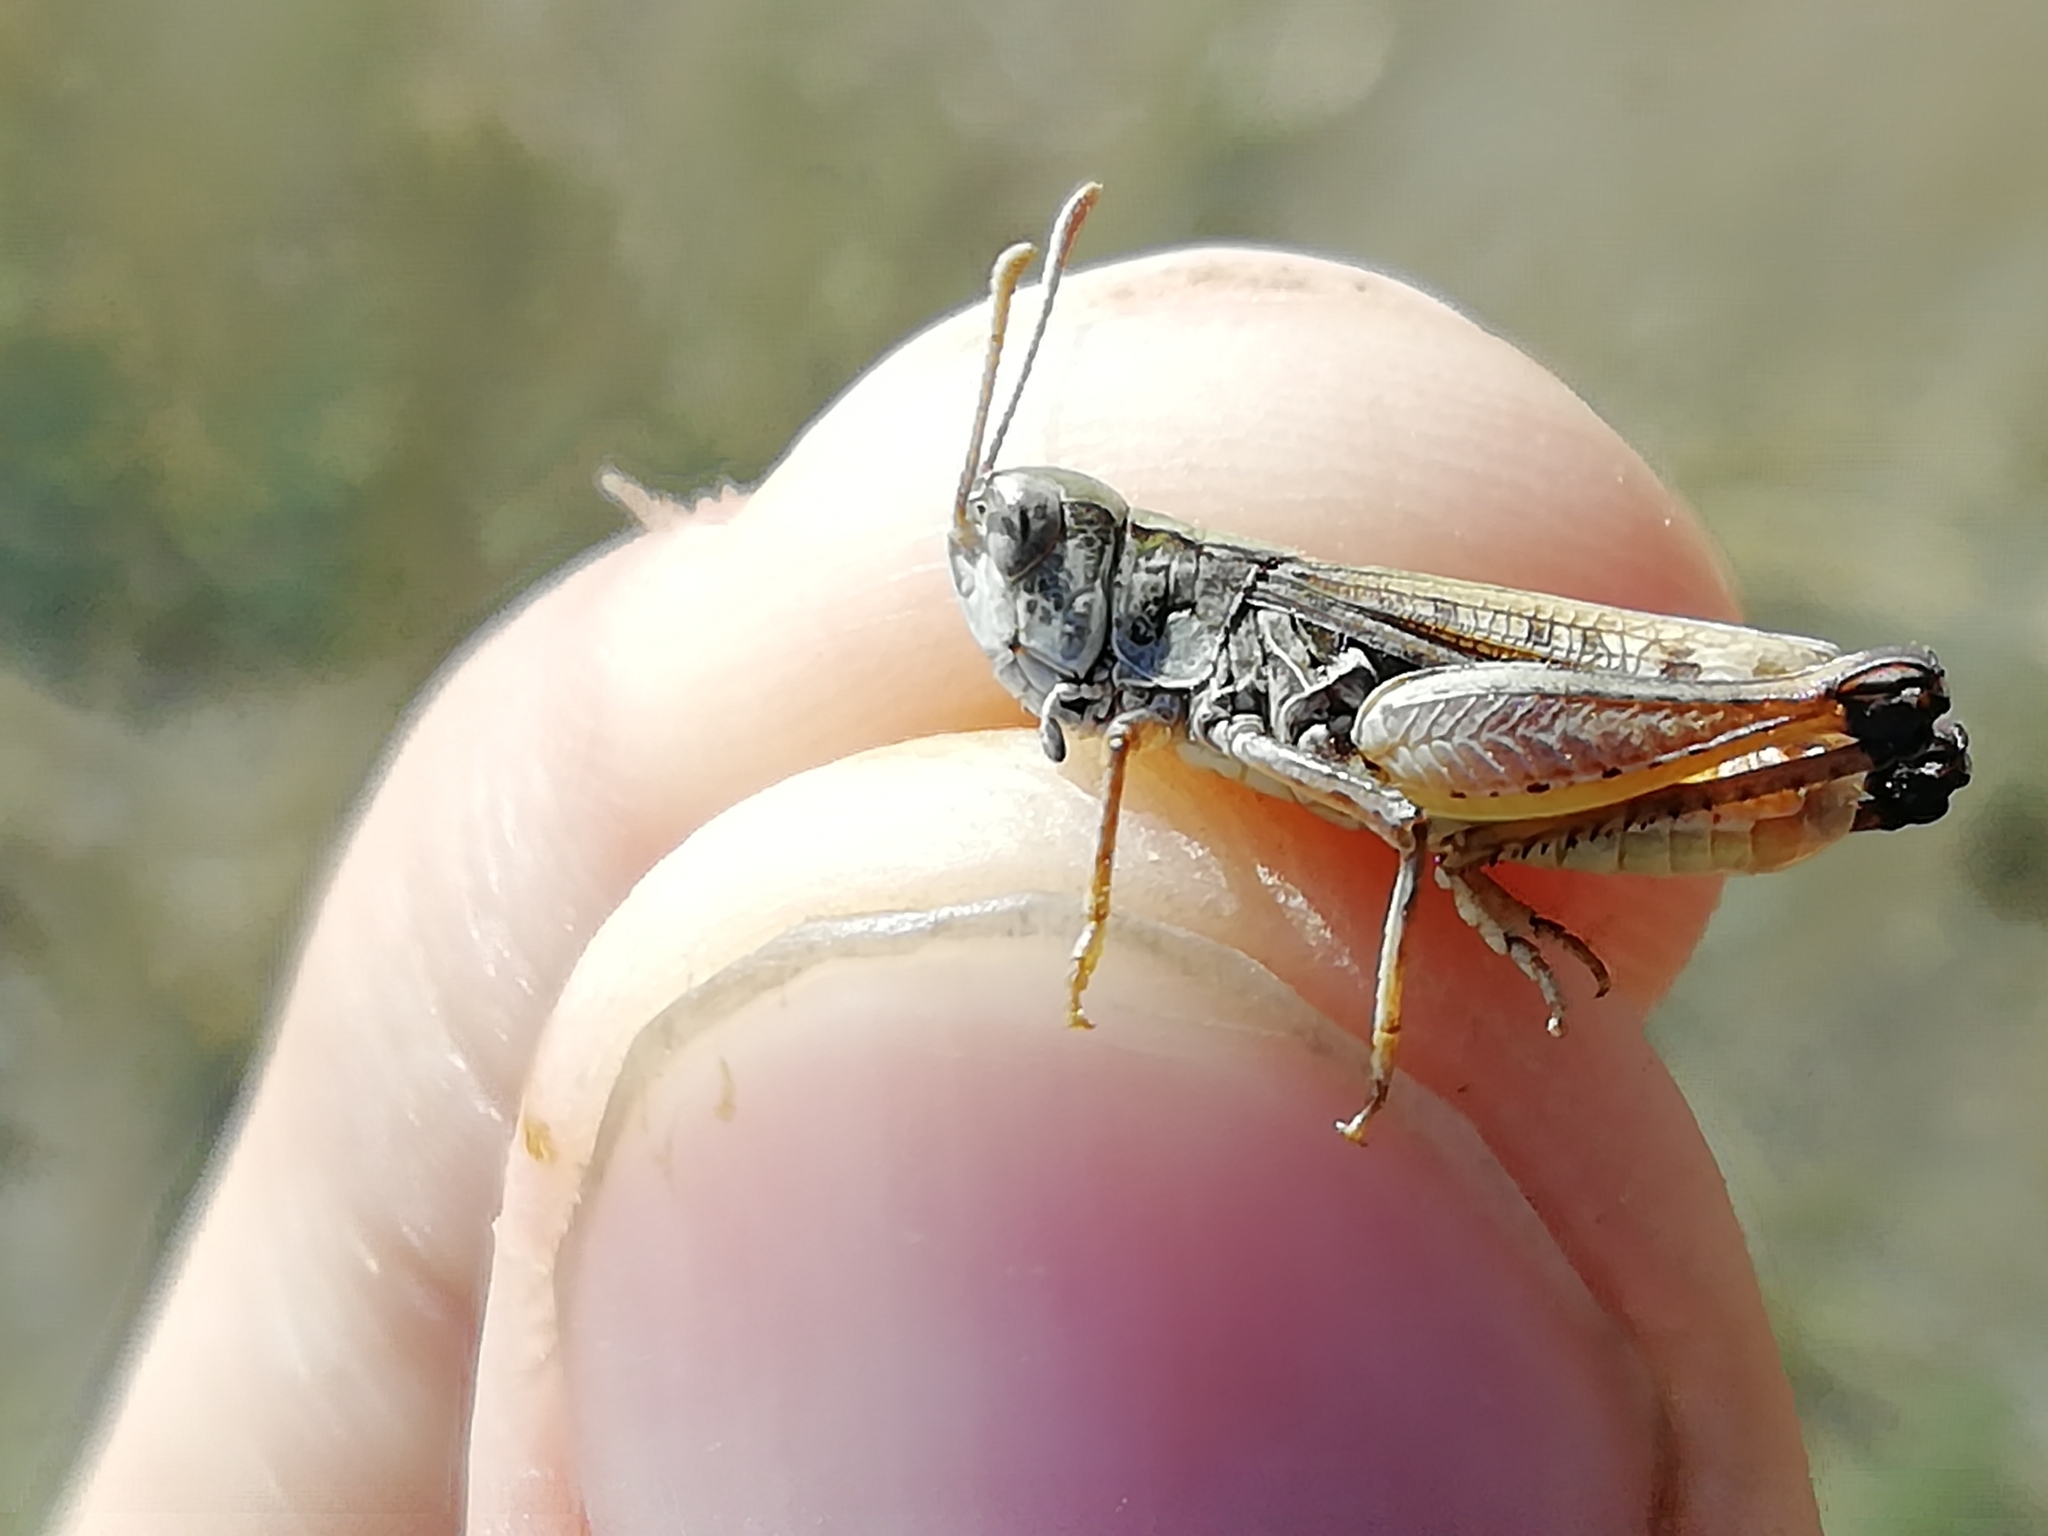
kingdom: Animalia
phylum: Arthropoda
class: Insecta
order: Orthoptera
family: Acrididae
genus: Myrmeleotettix
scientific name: Myrmeleotettix palpalis
